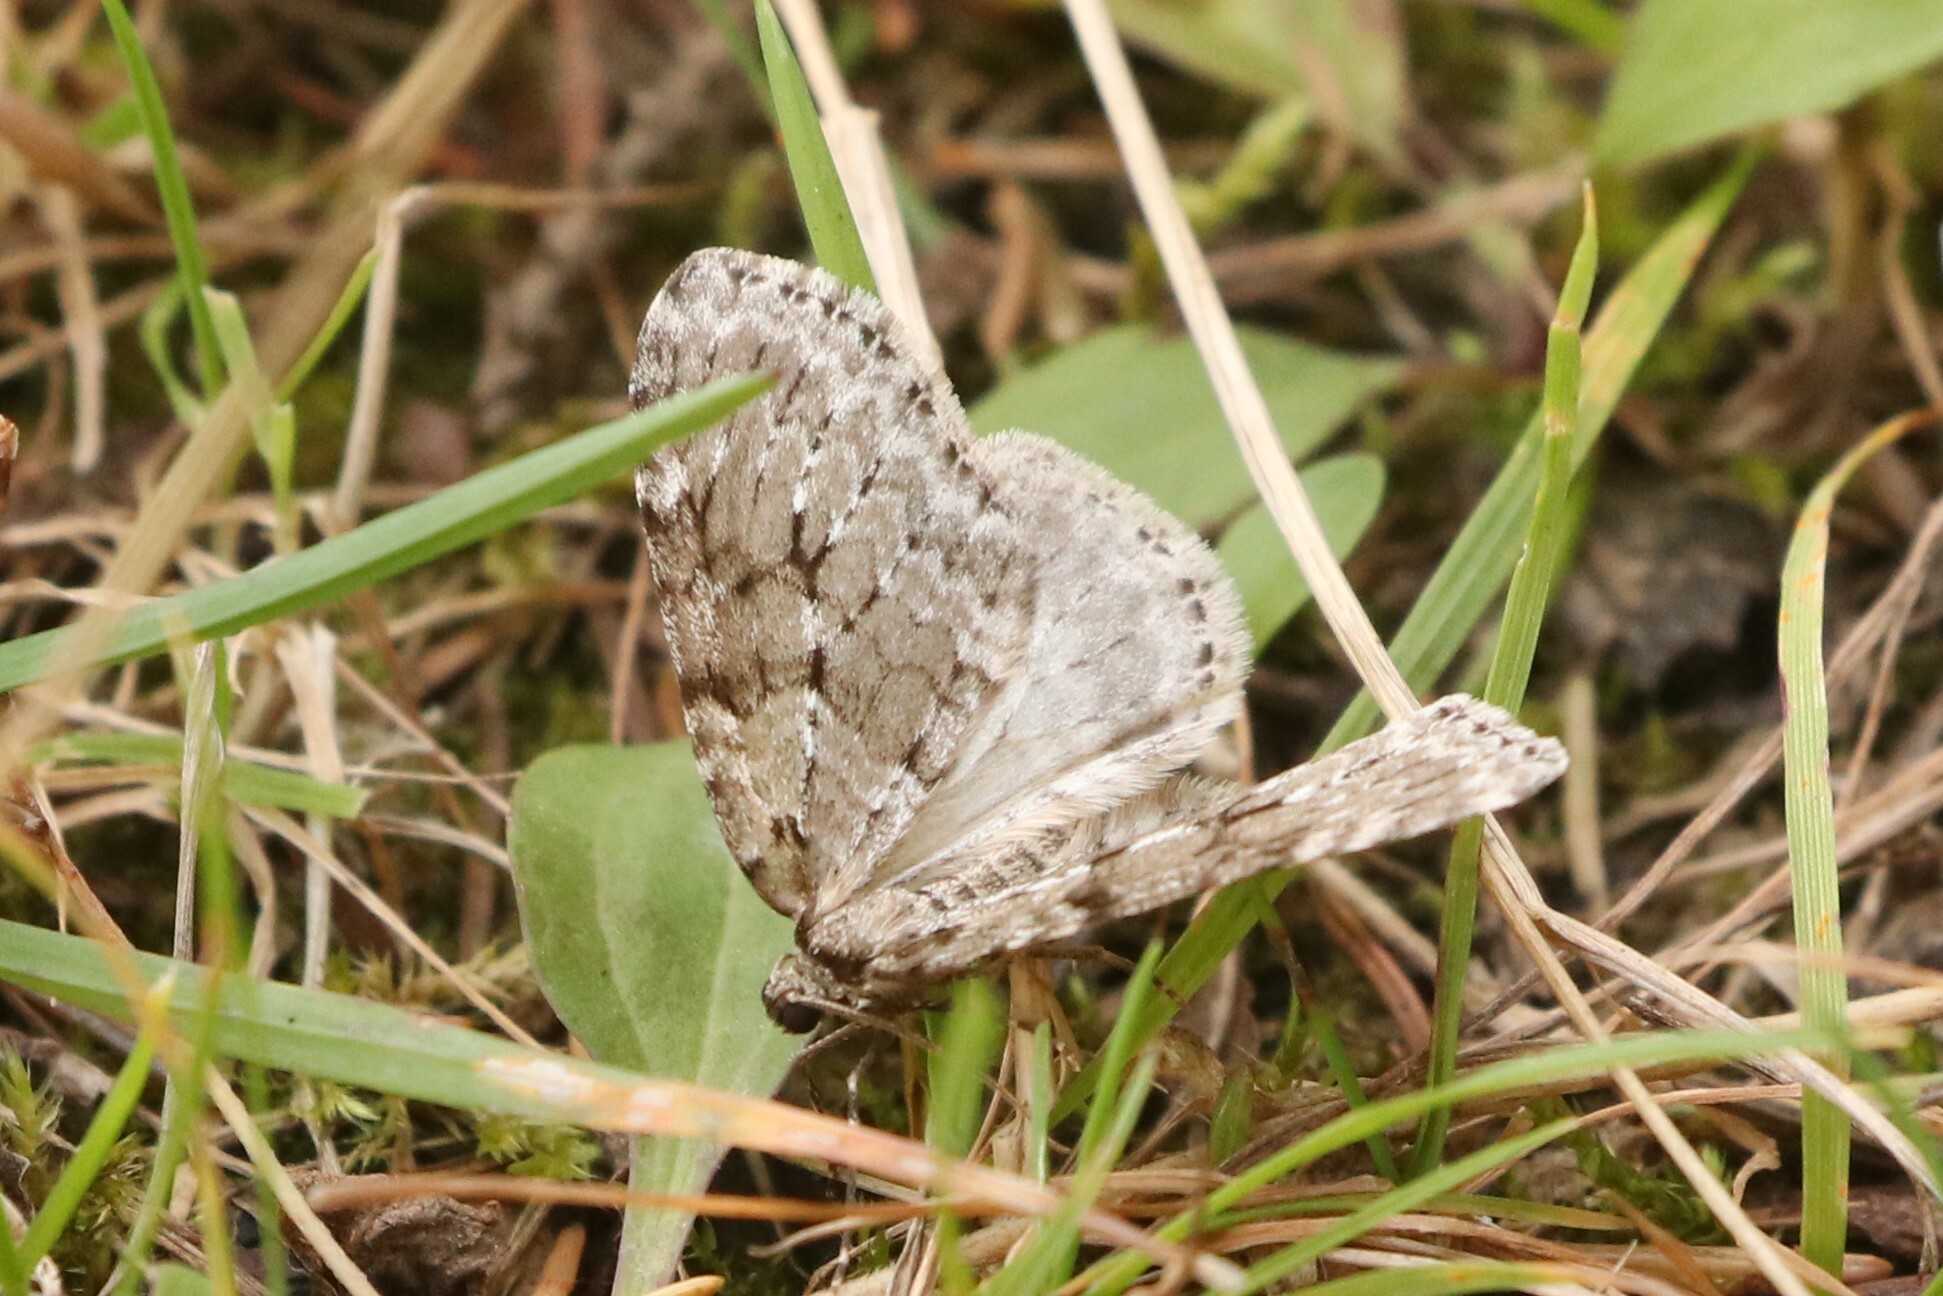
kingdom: Animalia
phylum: Arthropoda
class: Insecta
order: Lepidoptera
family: Geometridae
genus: Epirrita
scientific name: Epirrita autumnata
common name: Autumnal moth
